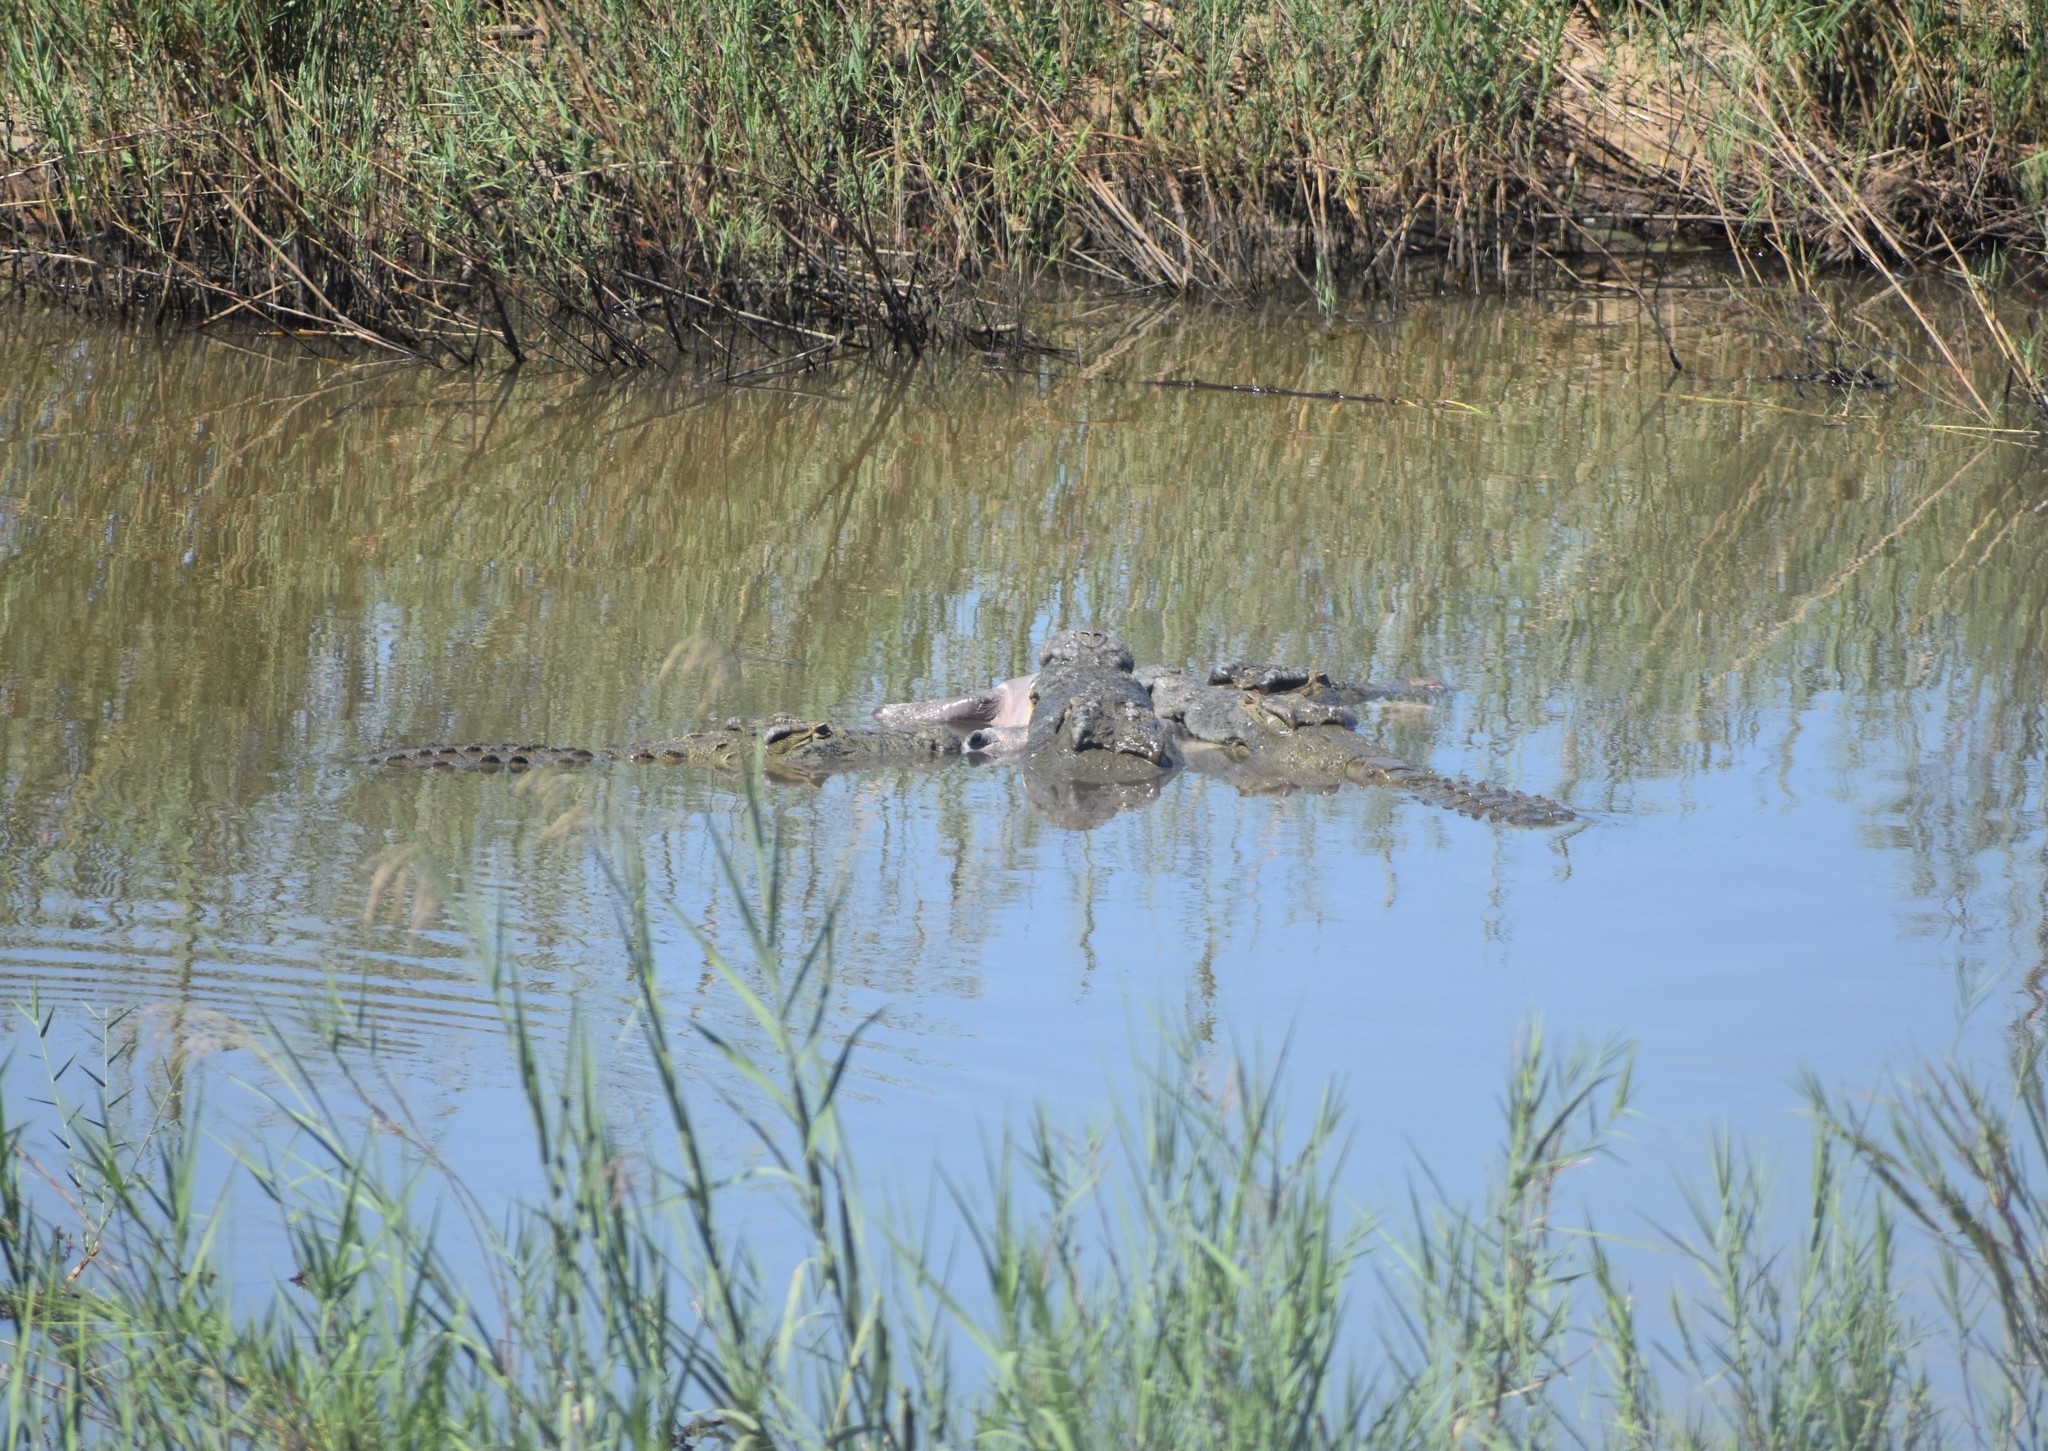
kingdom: Animalia
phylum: Chordata
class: Crocodylia
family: Crocodylidae
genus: Crocodylus
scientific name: Crocodylus niloticus
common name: Nile crocodile
